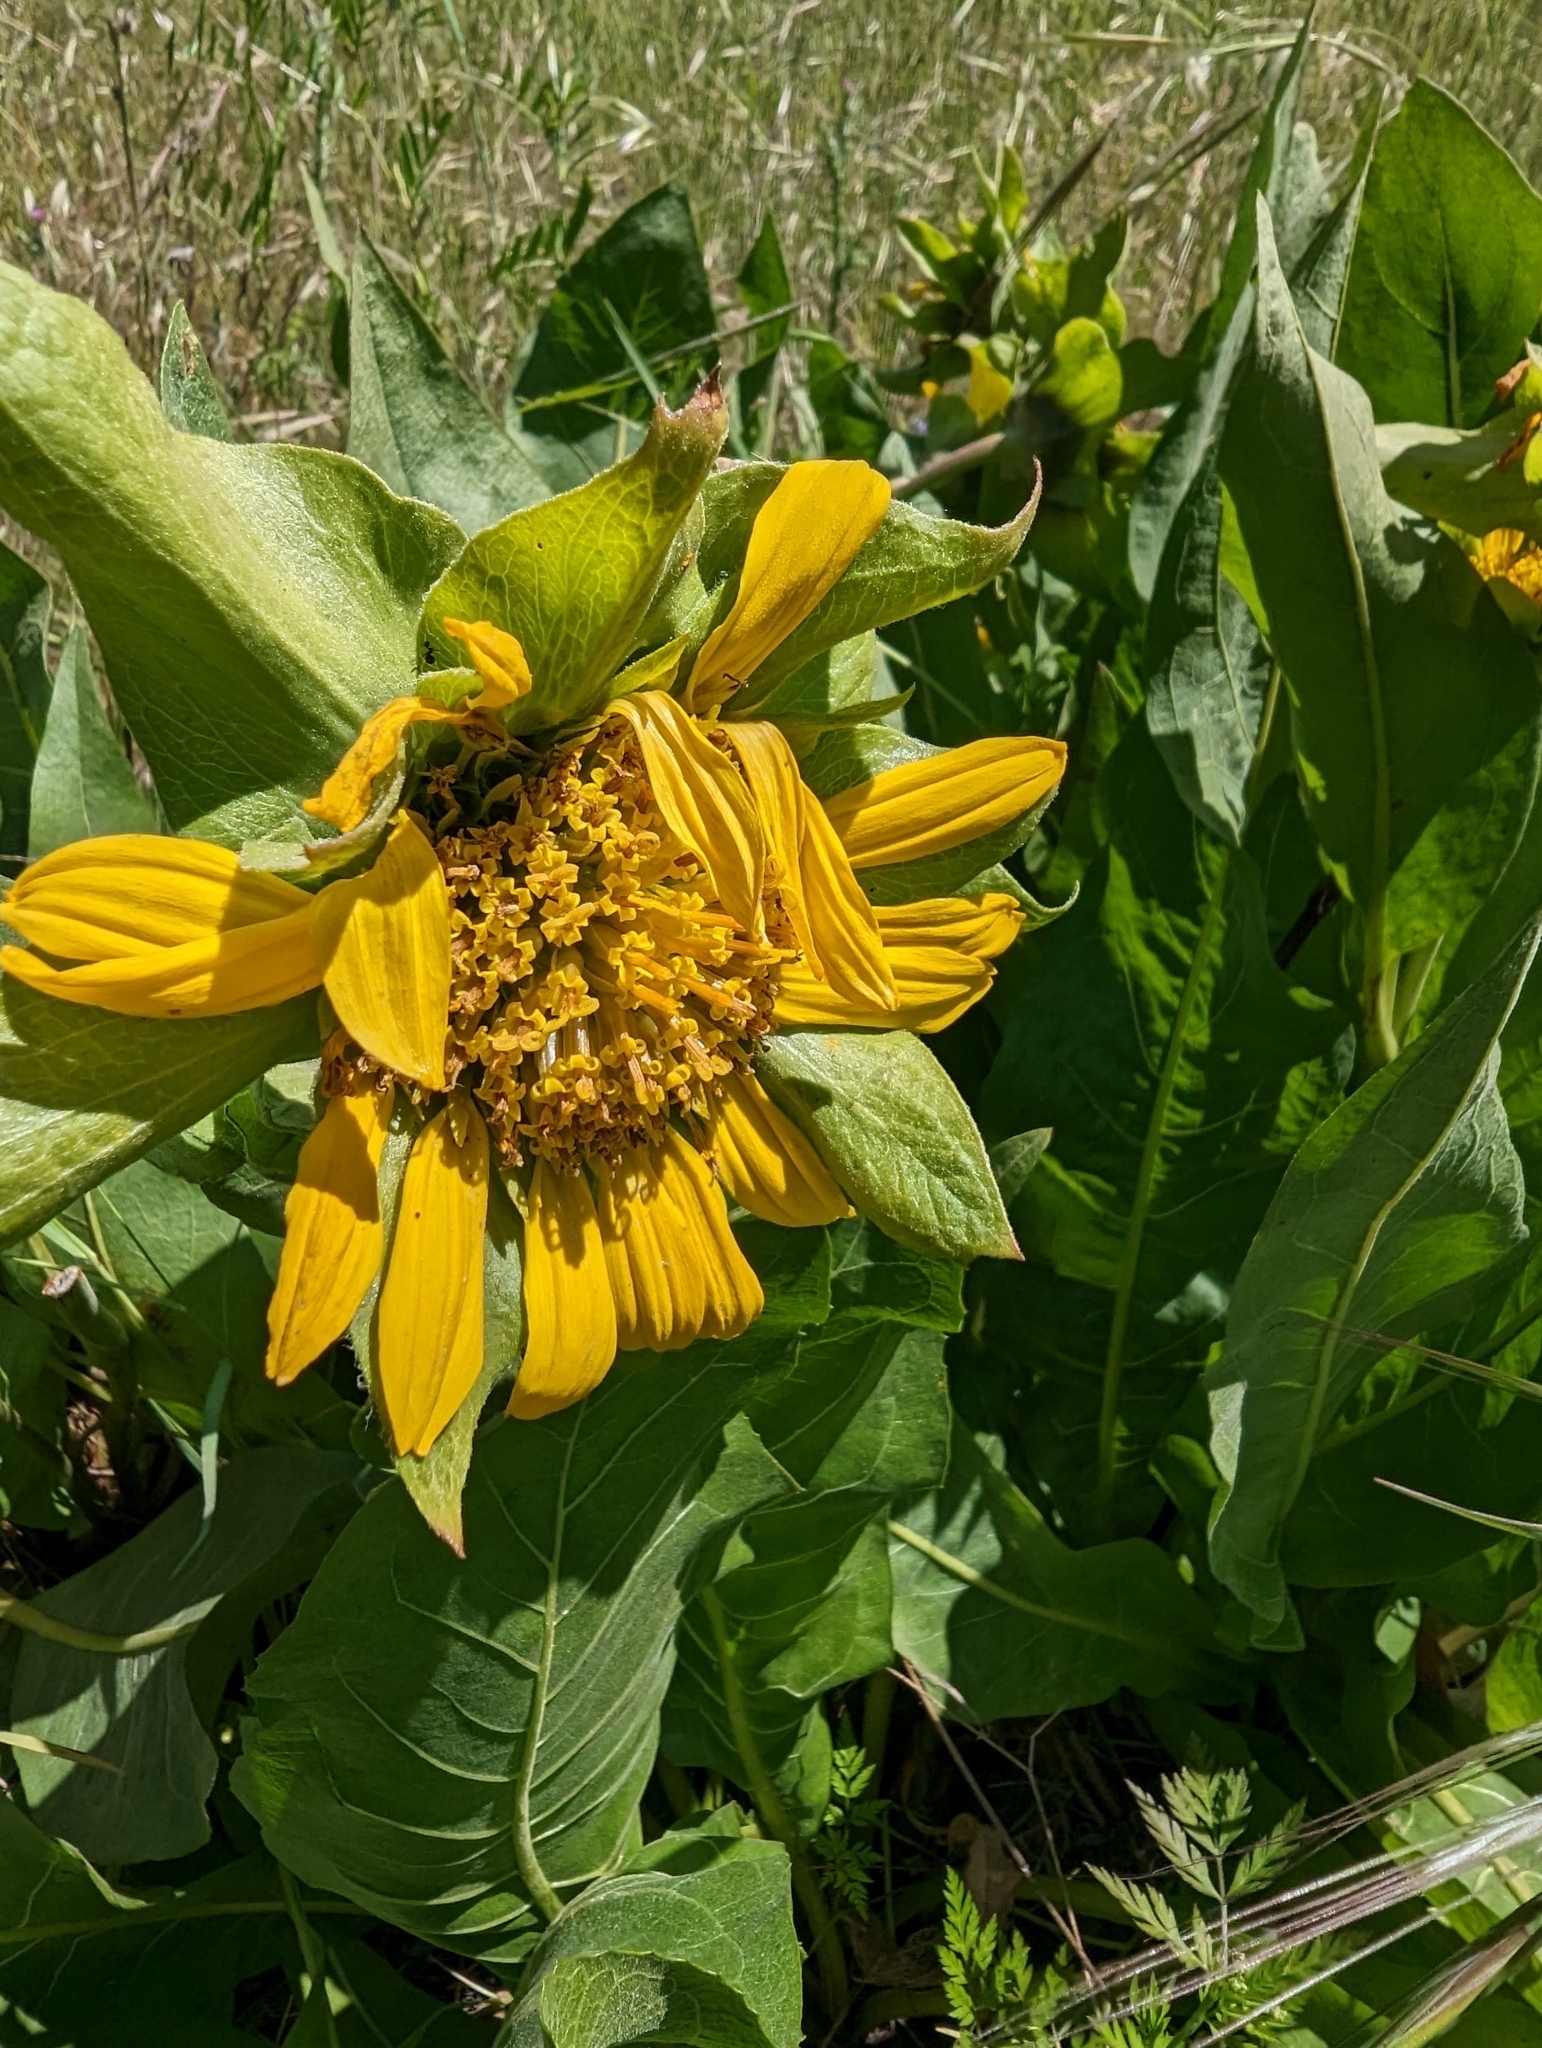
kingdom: Plantae
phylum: Tracheophyta
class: Magnoliopsida
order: Asterales
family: Asteraceae
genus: Wyethia
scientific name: Wyethia glabra
